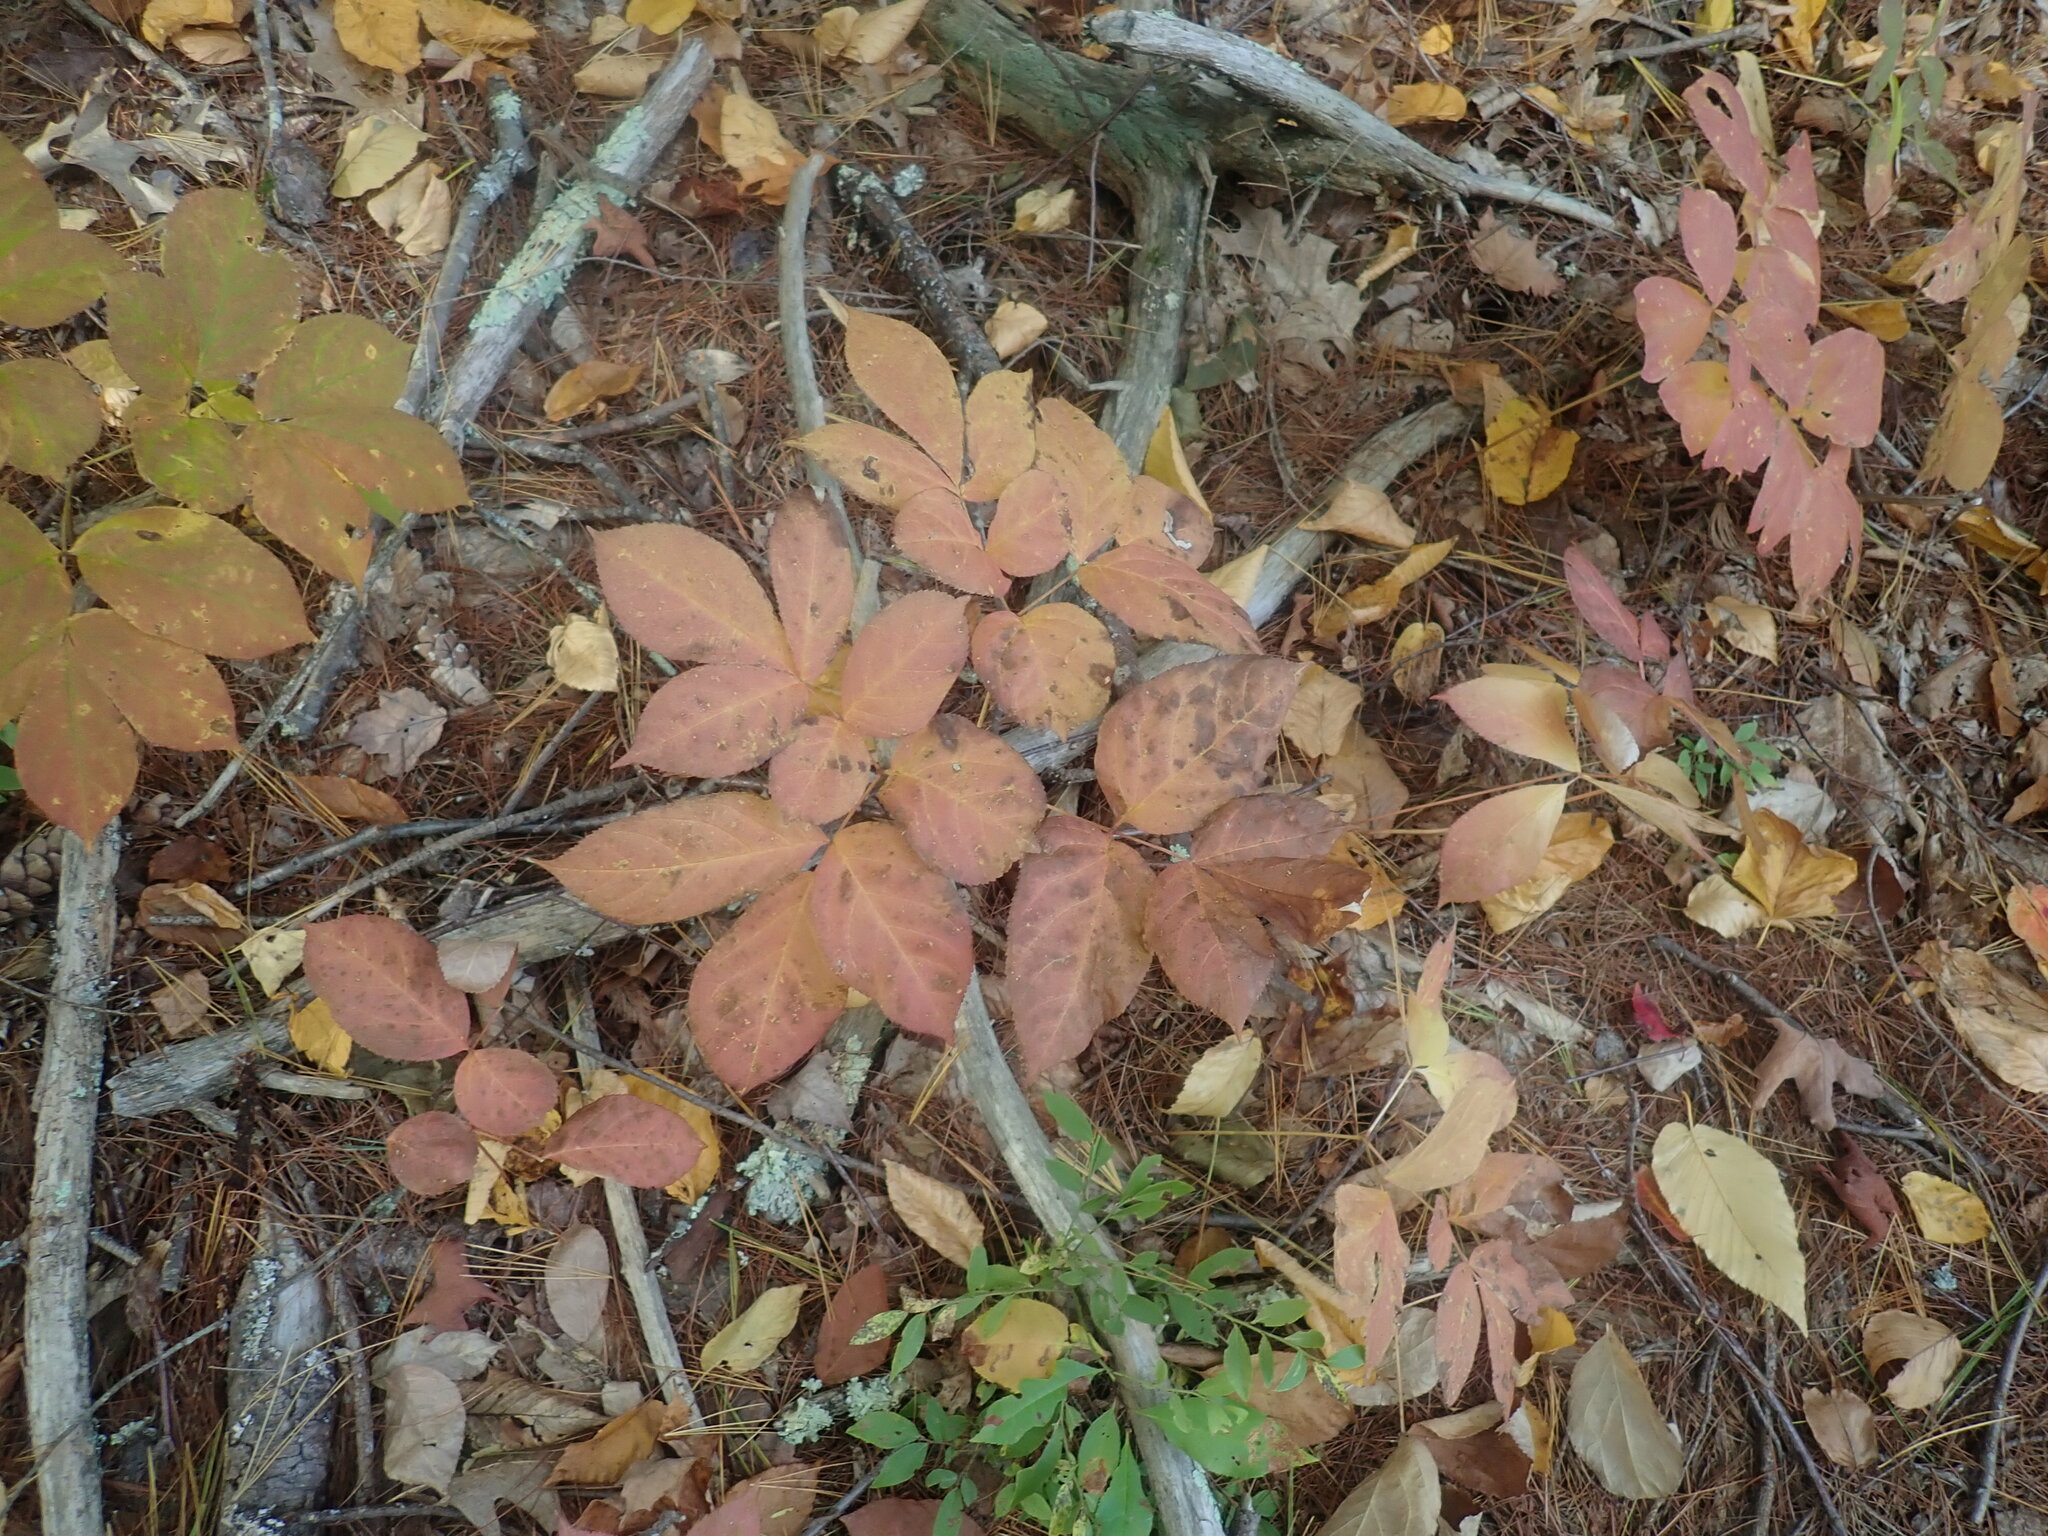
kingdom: Plantae
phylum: Tracheophyta
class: Magnoliopsida
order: Apiales
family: Araliaceae
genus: Aralia
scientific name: Aralia nudicaulis
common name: Wild sarsaparilla
